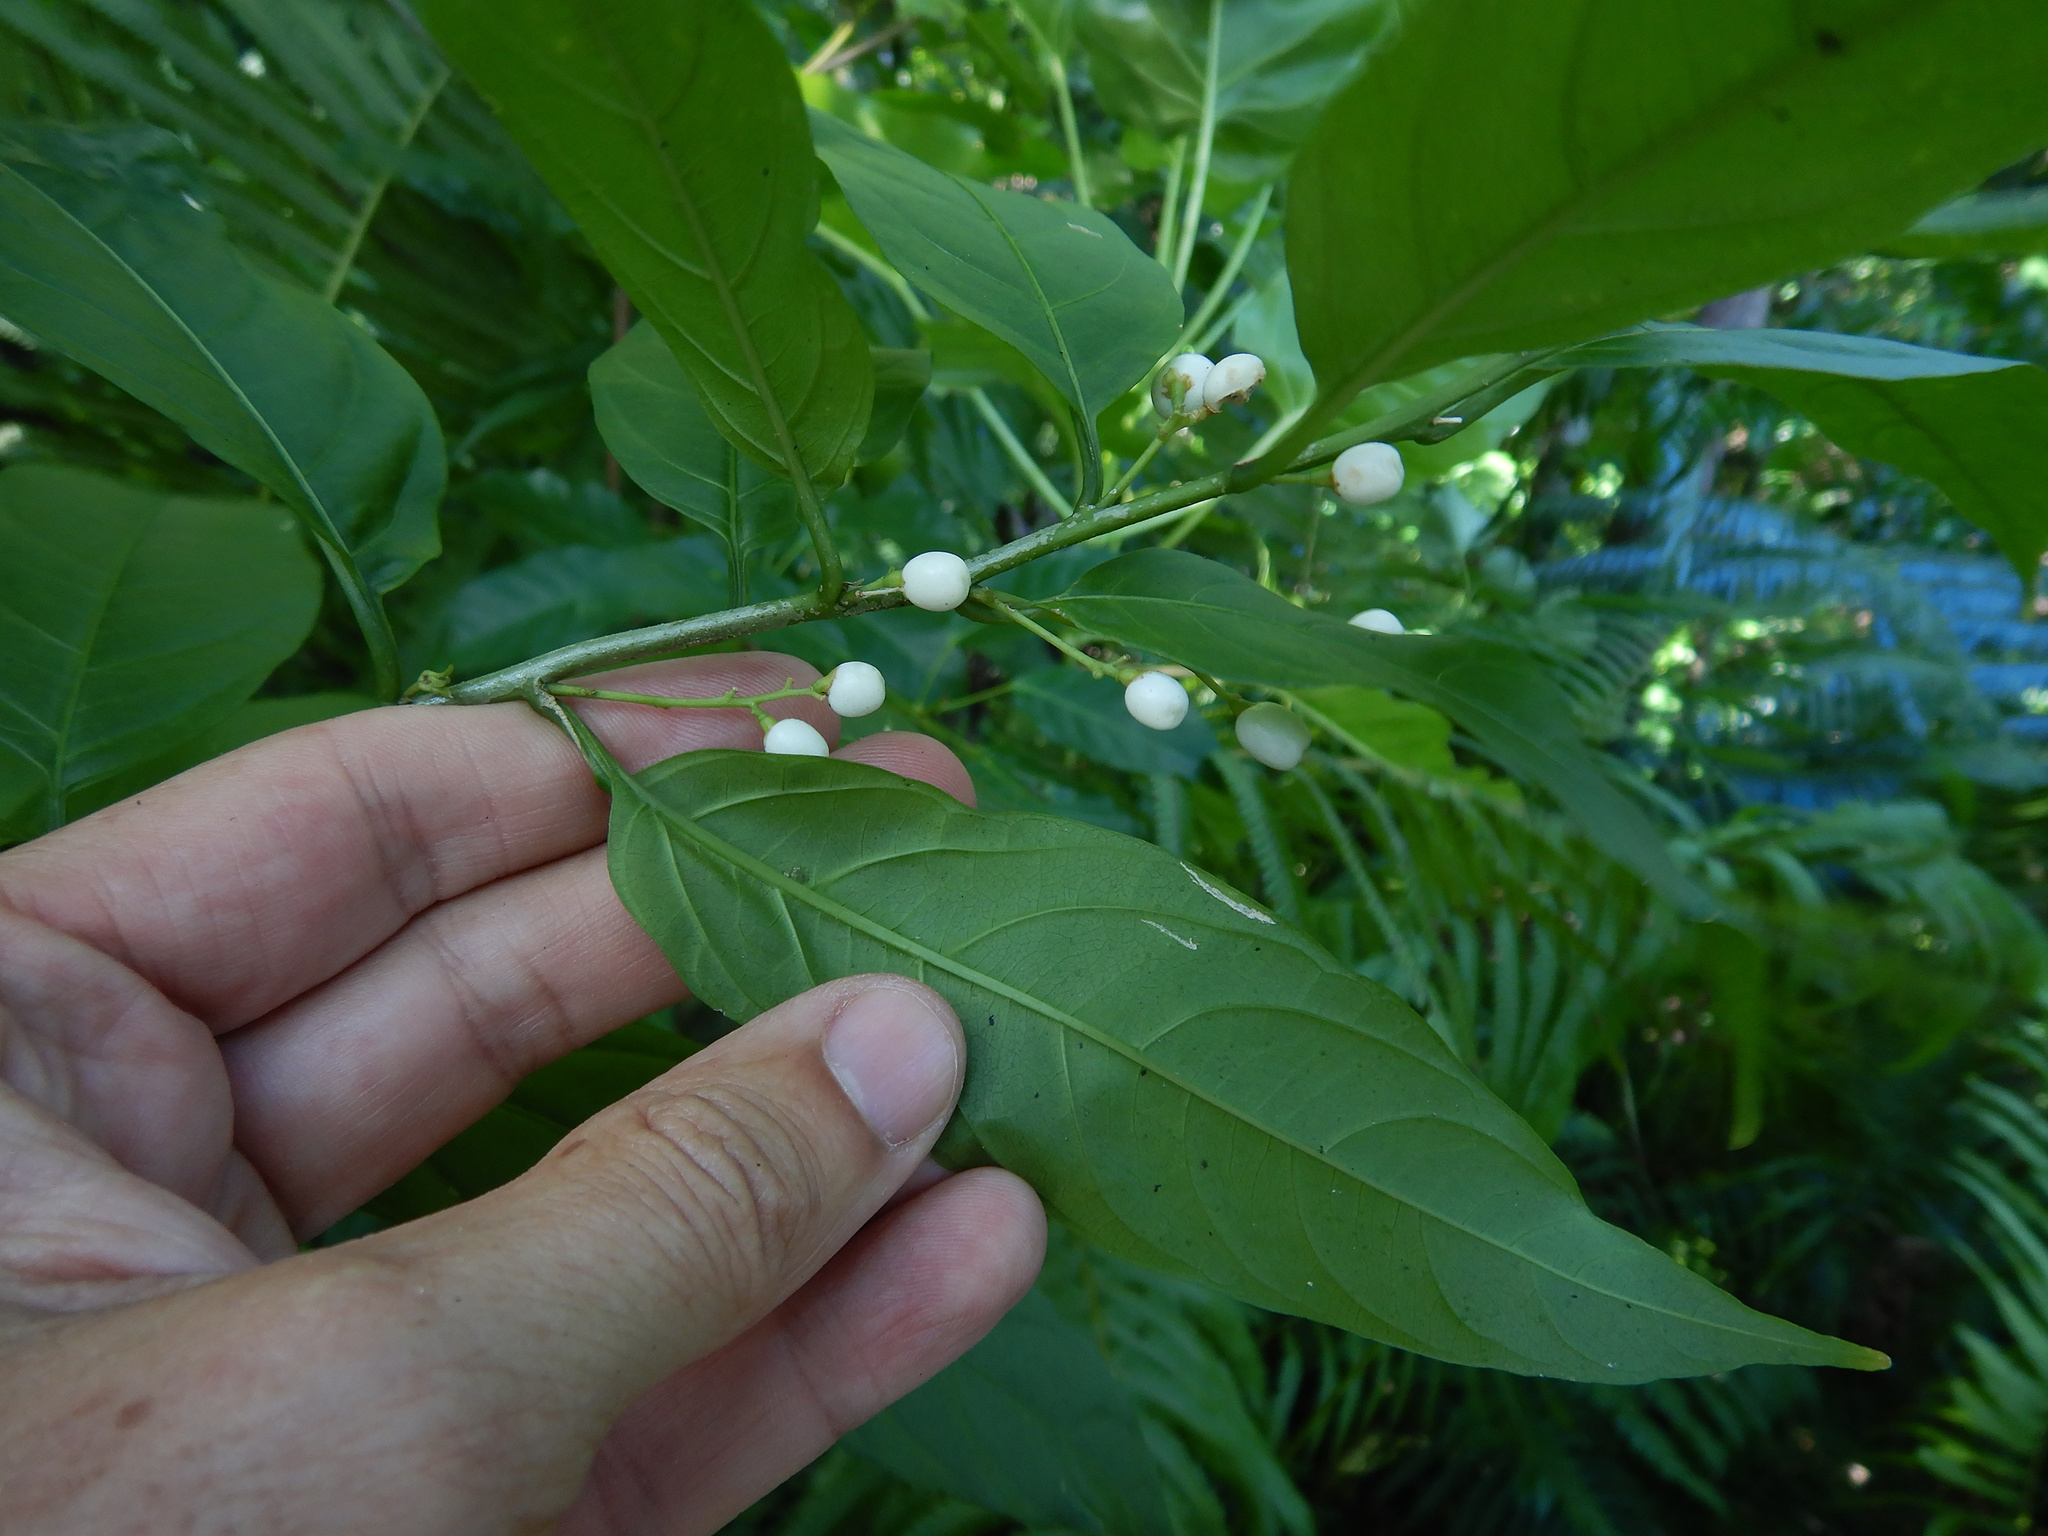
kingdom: Plantae
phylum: Tracheophyta
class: Magnoliopsida
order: Solanales
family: Solanaceae
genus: Cestrum
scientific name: Cestrum nocturnum
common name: Night jessamine
